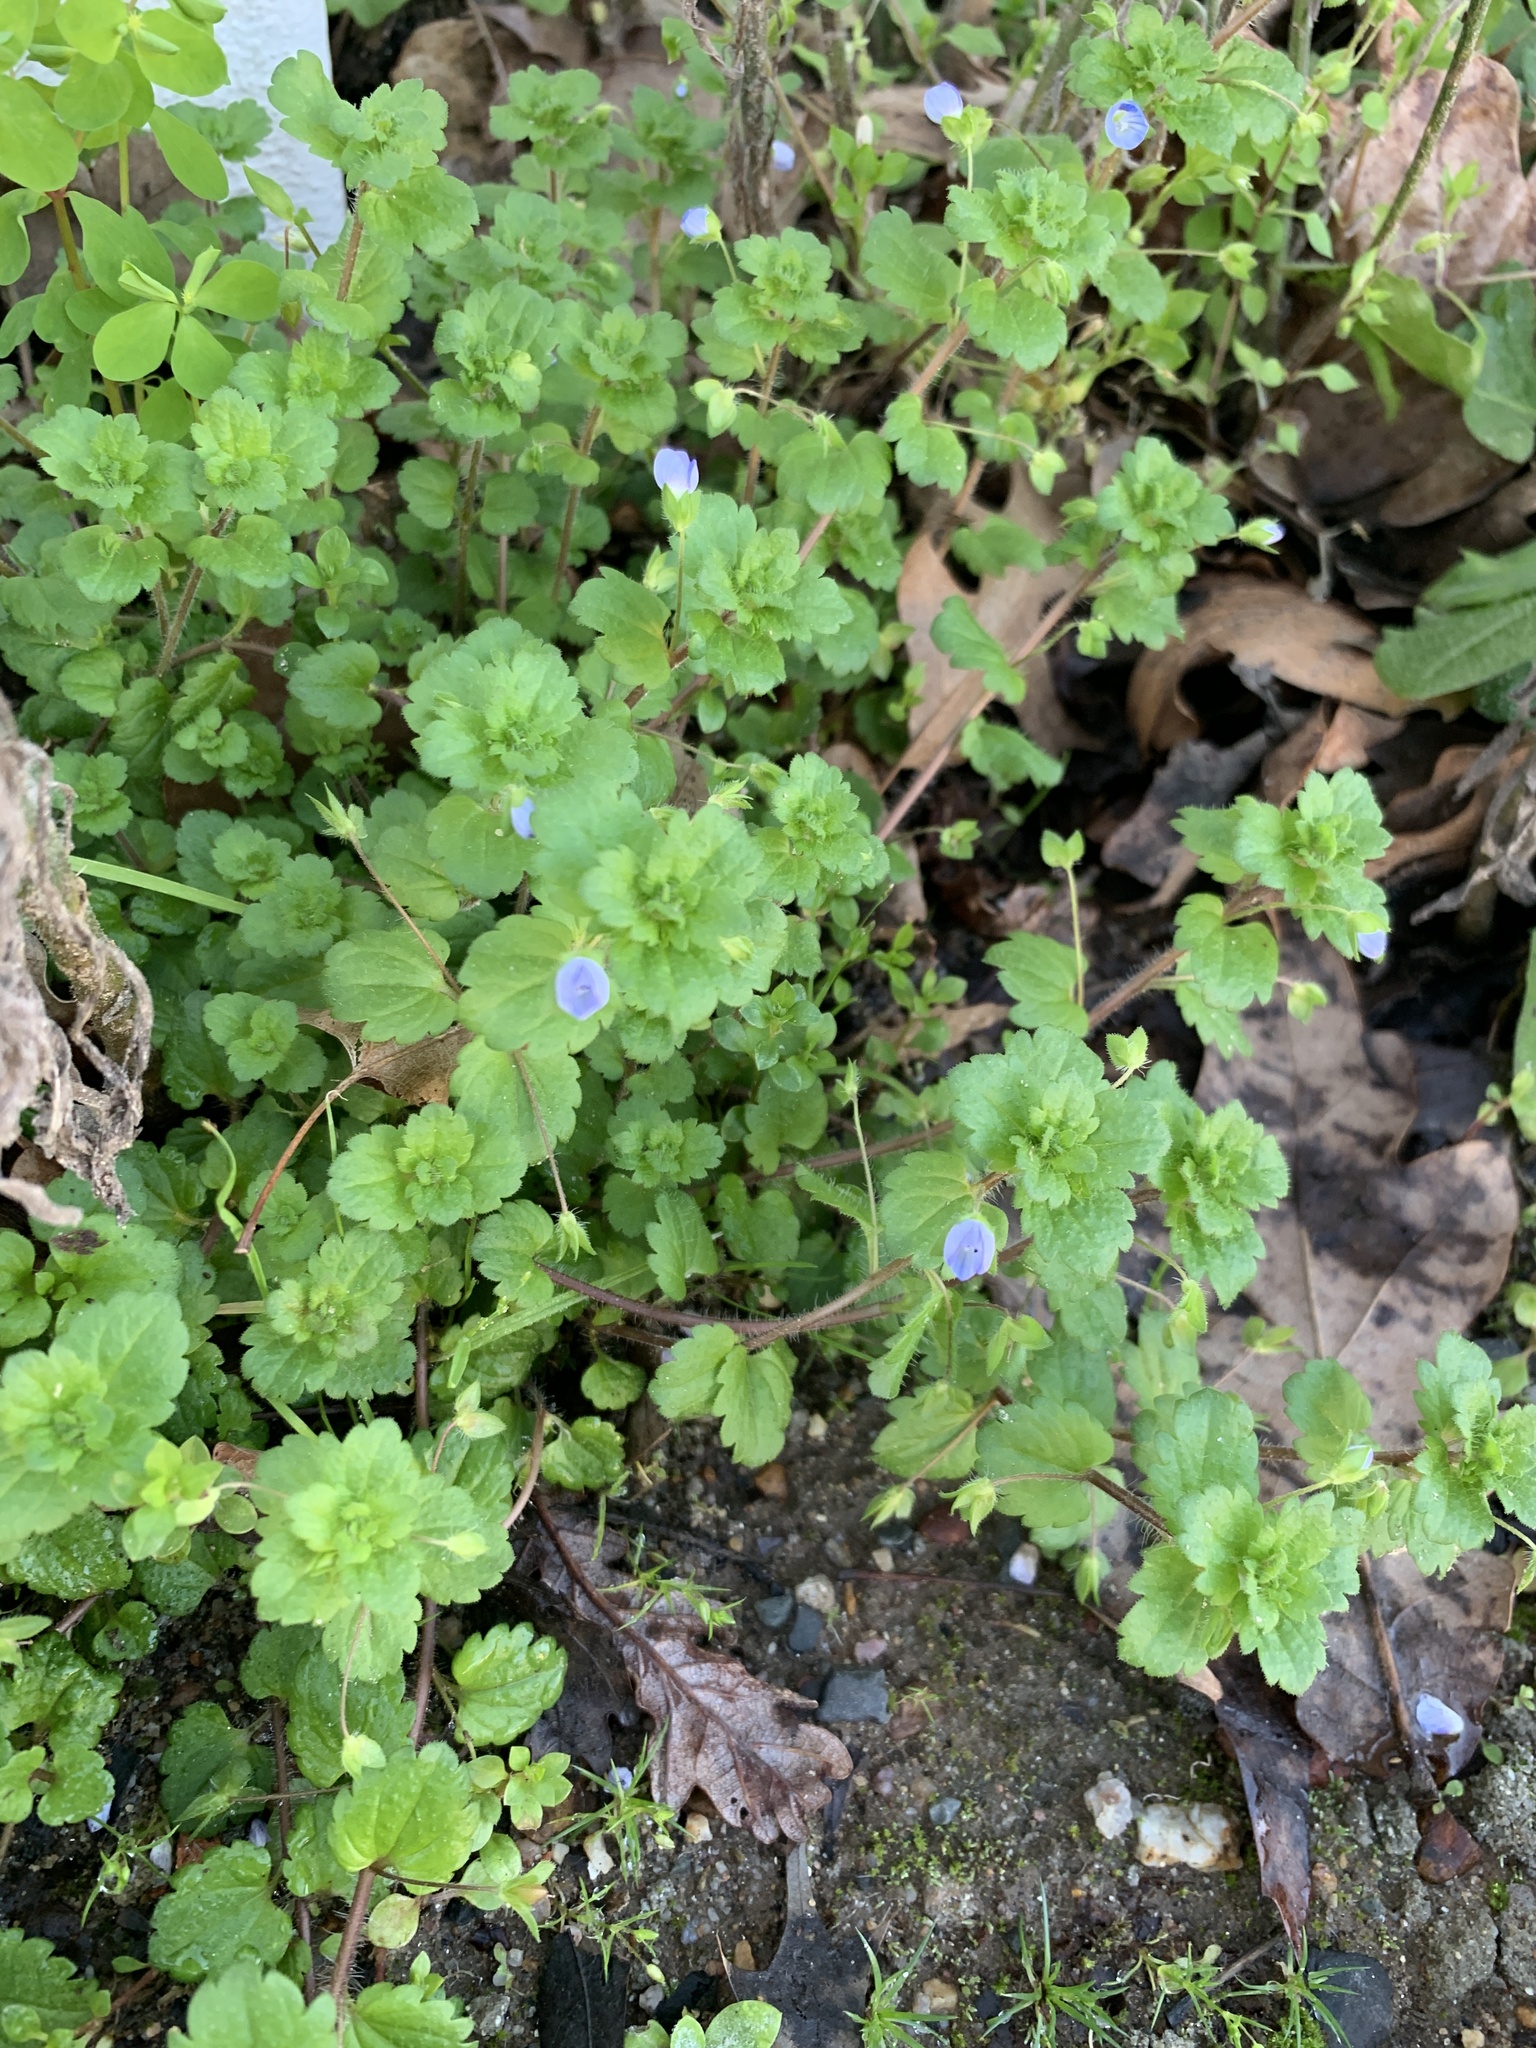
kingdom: Plantae
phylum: Tracheophyta
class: Magnoliopsida
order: Lamiales
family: Plantaginaceae
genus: Veronica
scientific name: Veronica persica
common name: Common field-speedwell
